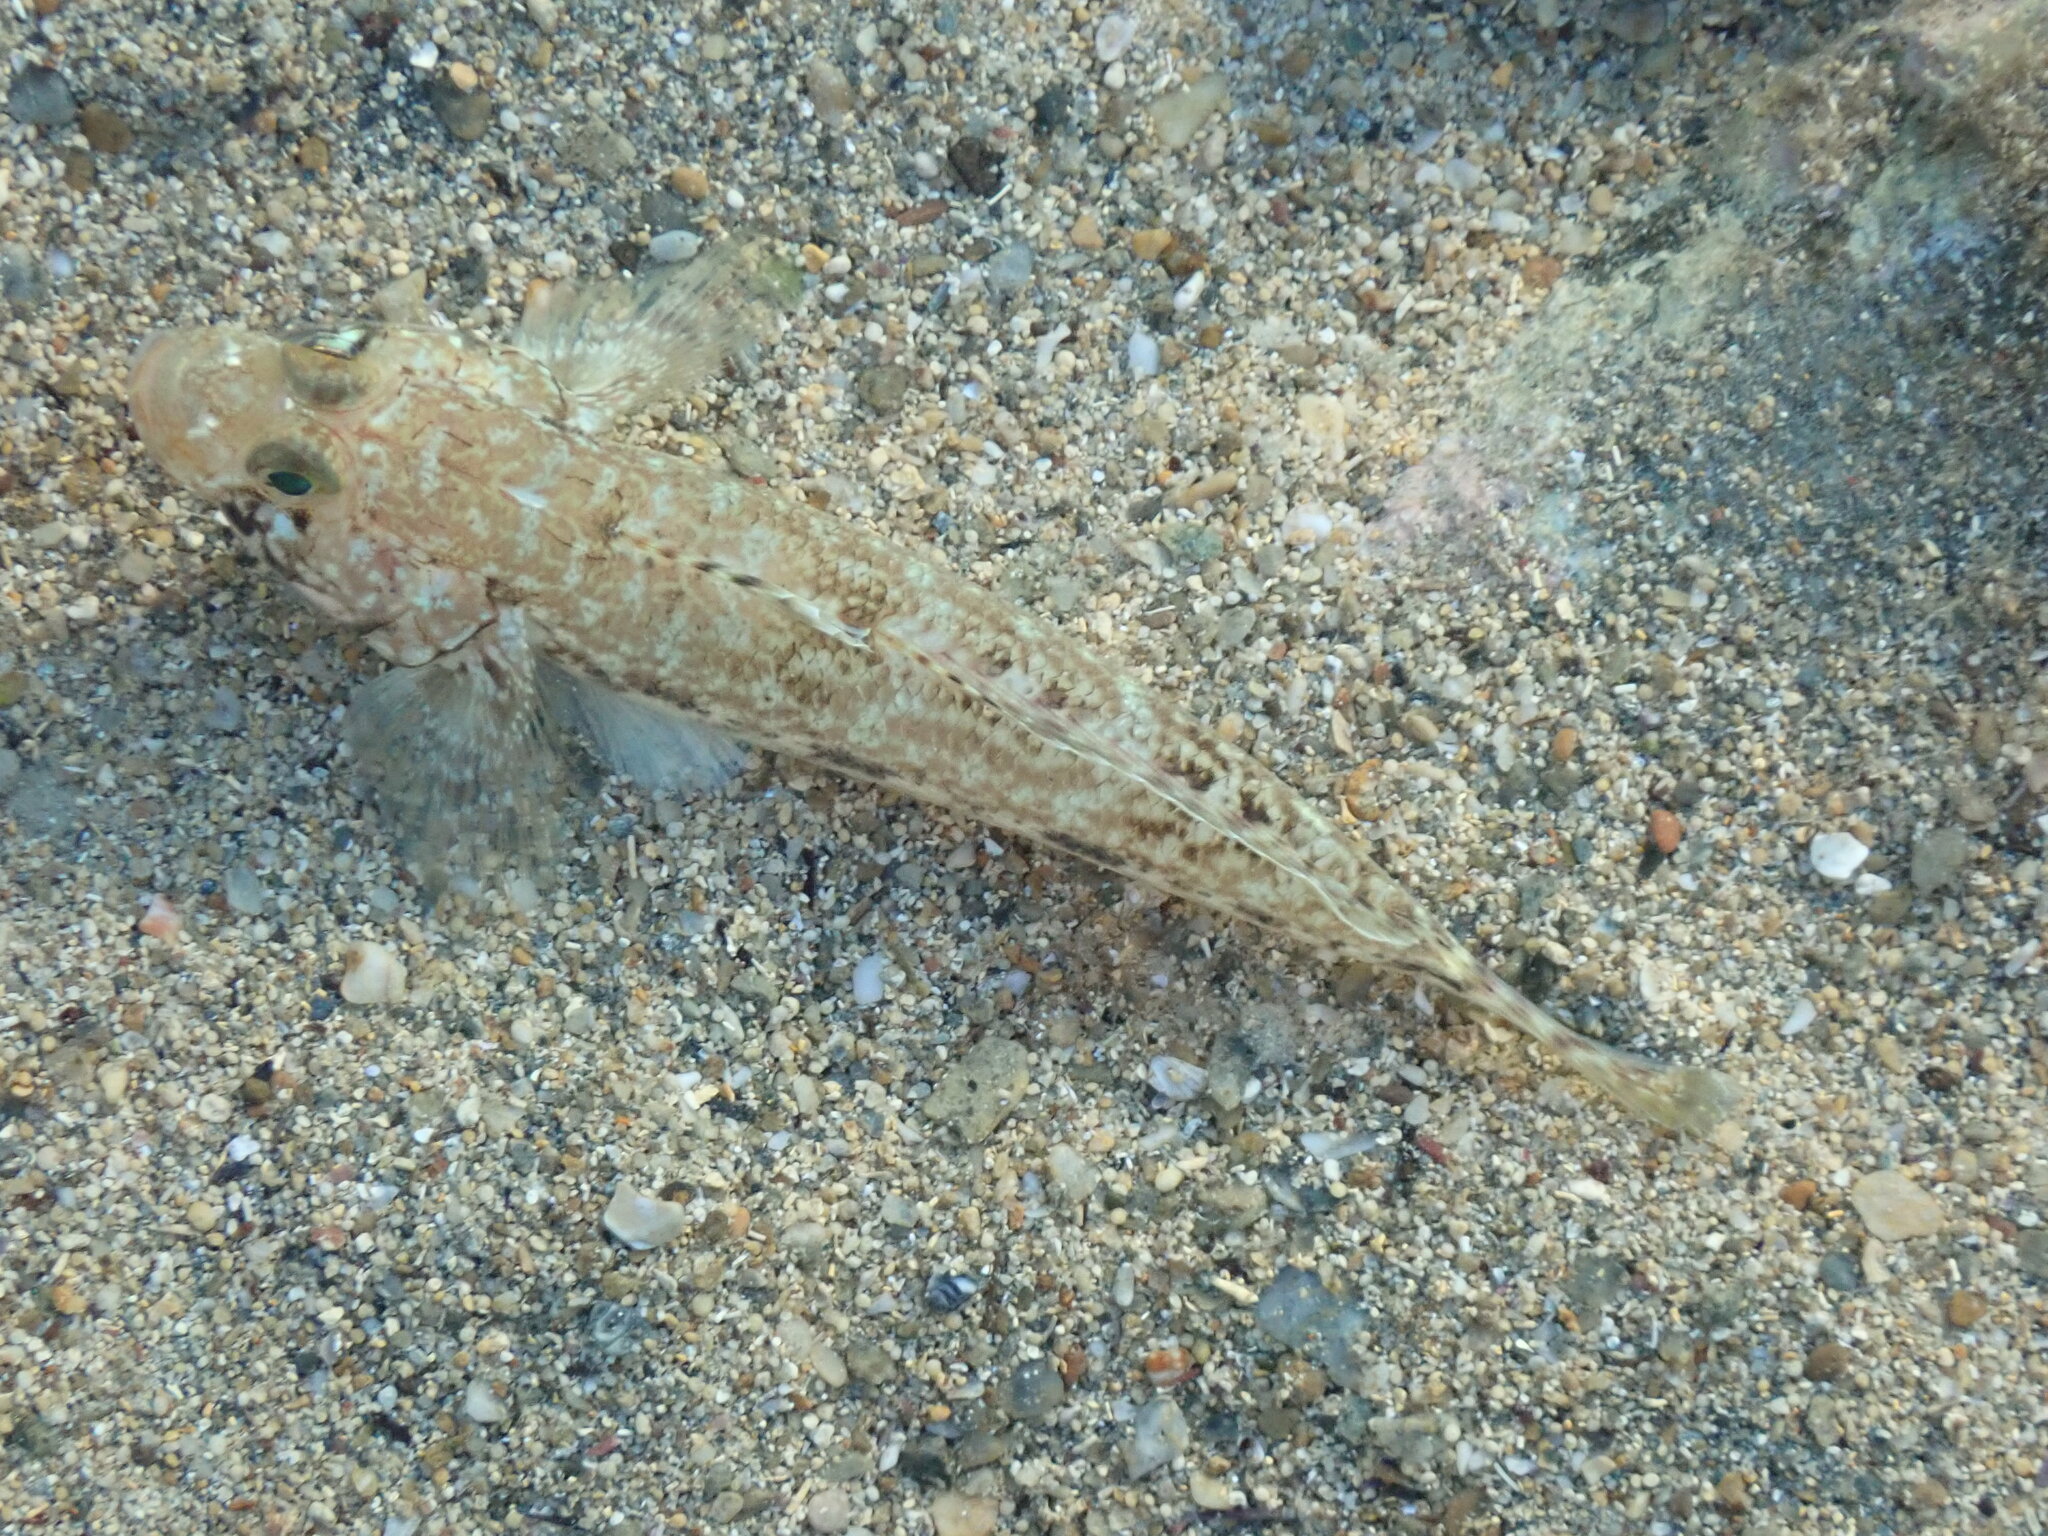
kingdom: Animalia
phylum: Chordata
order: Perciformes
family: Gobiidae
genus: Gobius
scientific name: Gobius geniporus
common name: Slender goby
